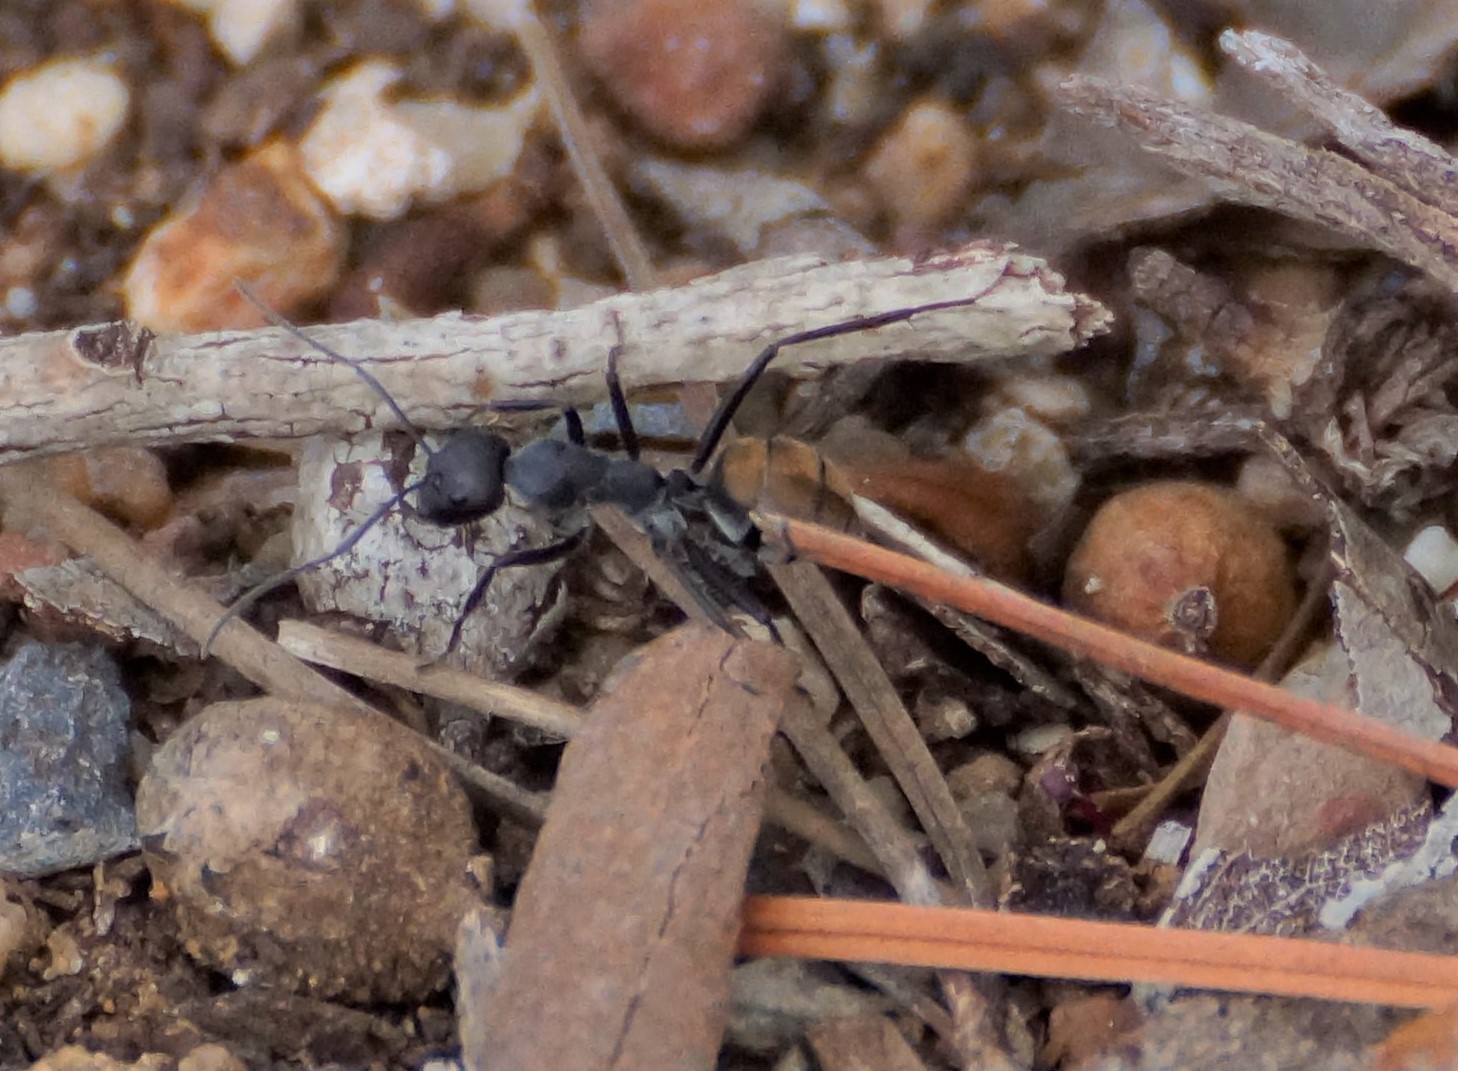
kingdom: Animalia
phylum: Arthropoda
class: Insecta
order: Hymenoptera
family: Formicidae
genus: Camponotus
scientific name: Camponotus suffusus
